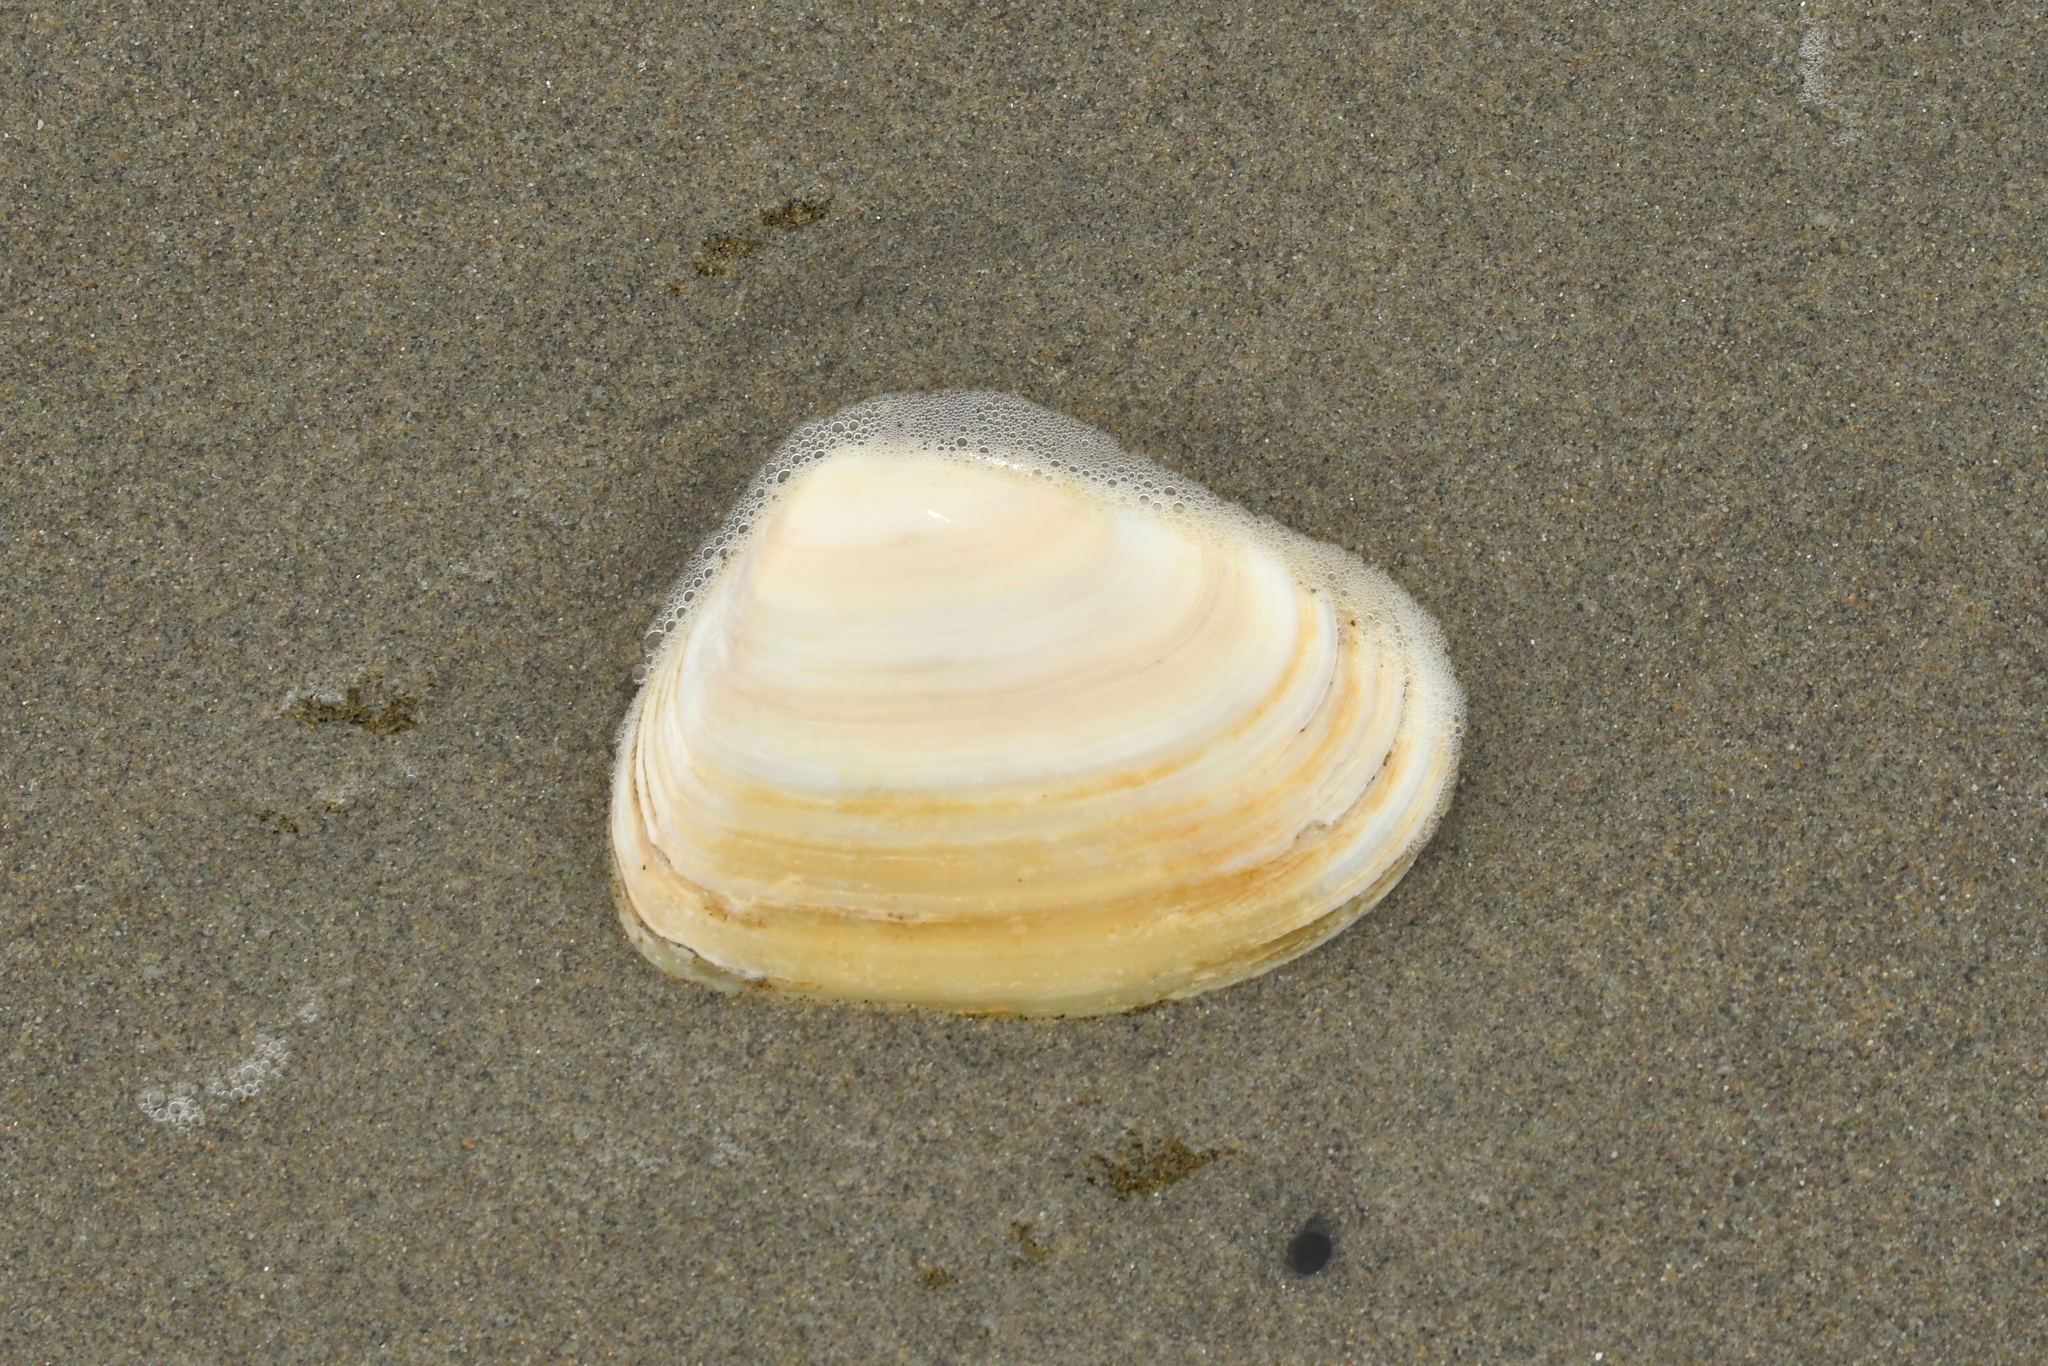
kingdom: Animalia
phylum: Mollusca
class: Bivalvia
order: Venerida
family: Mesodesmatidae
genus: Paphies
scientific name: Paphies donacina
